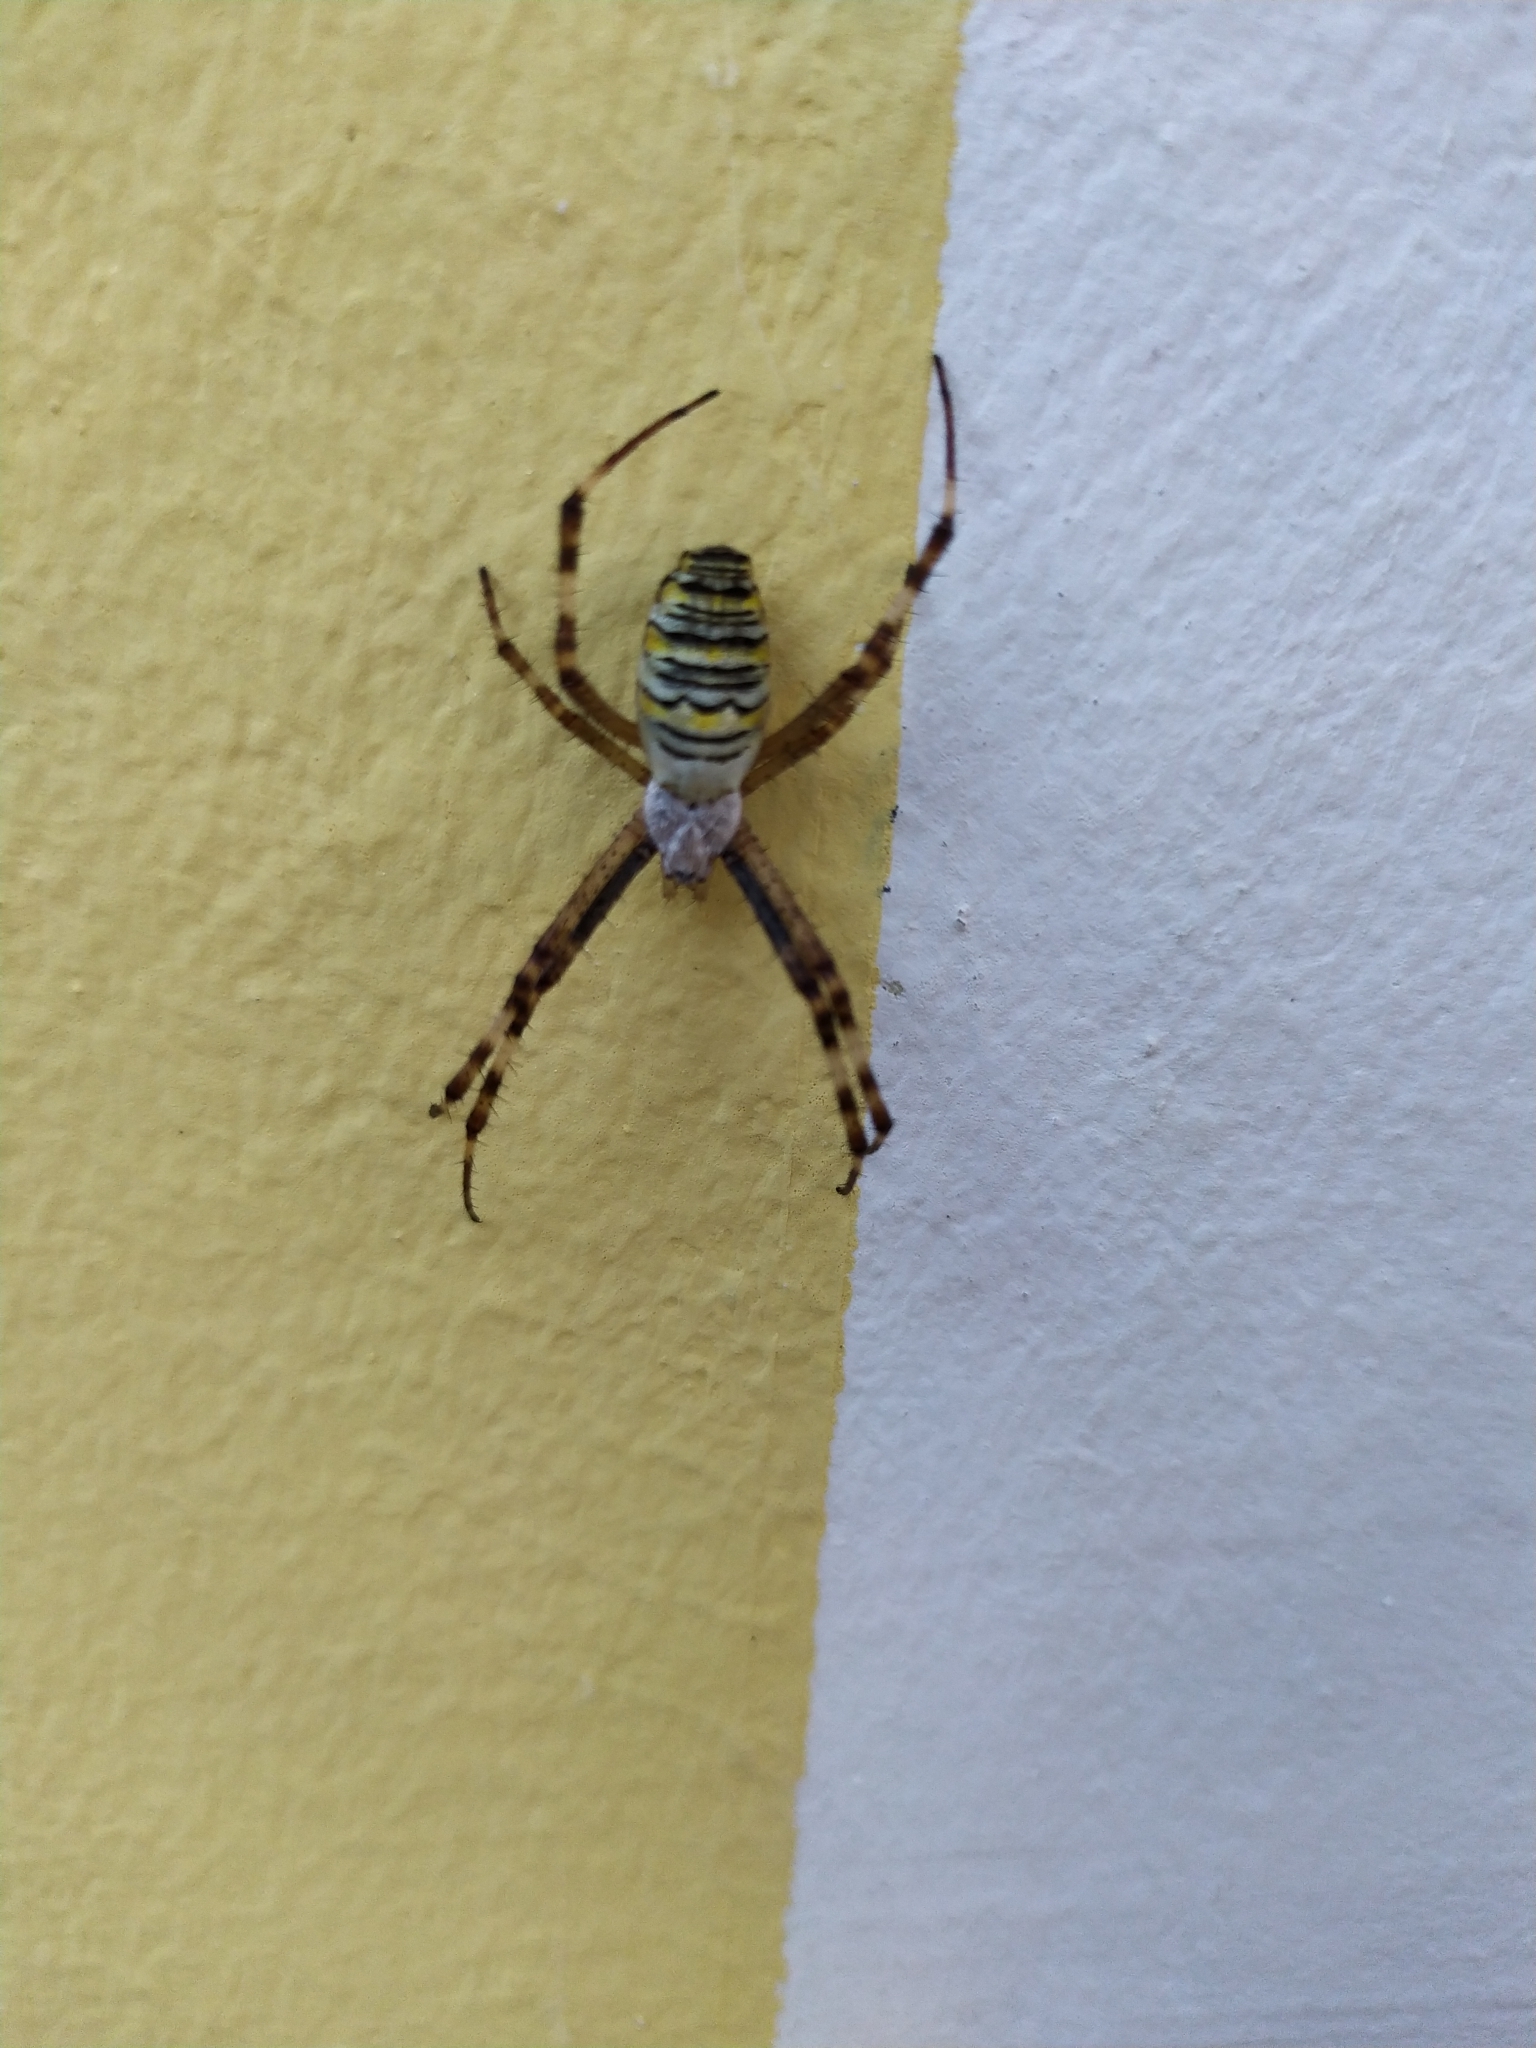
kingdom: Animalia
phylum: Arthropoda
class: Arachnida
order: Araneae
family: Araneidae
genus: Argiope
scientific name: Argiope bruennichi
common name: Wasp spider
